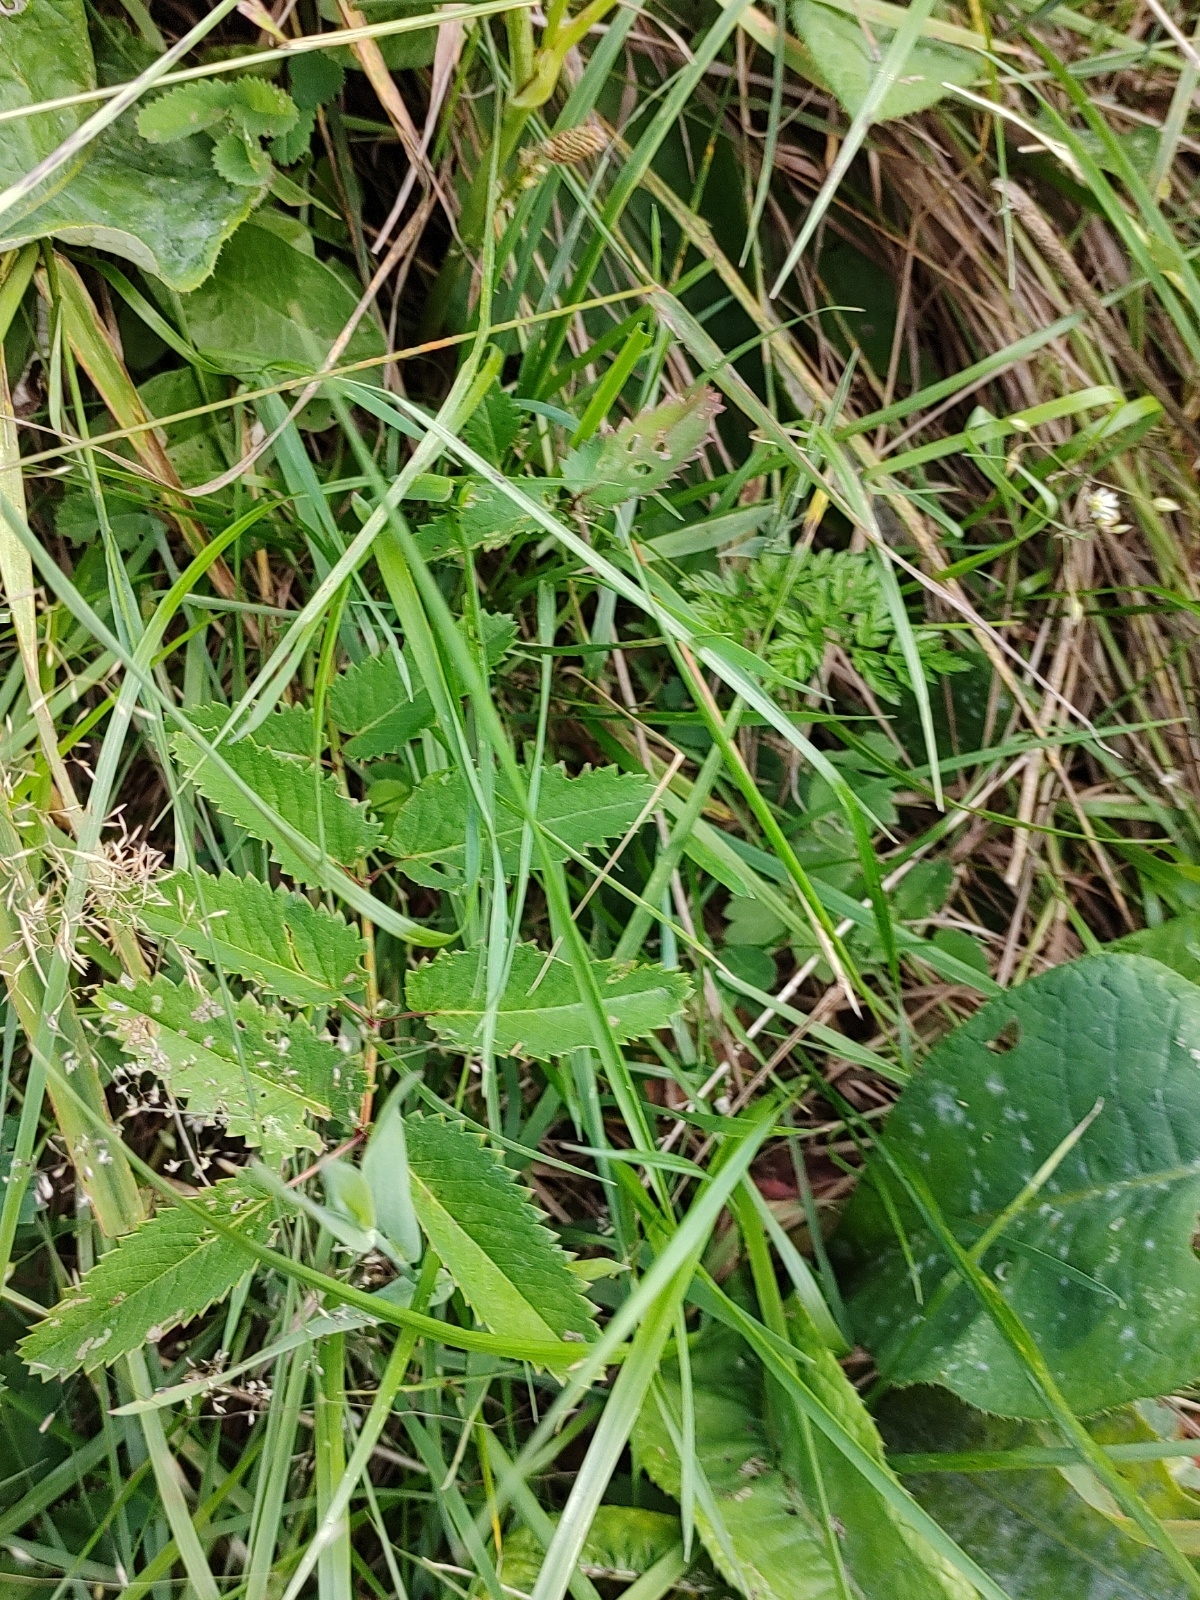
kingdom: Plantae
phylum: Tracheophyta
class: Magnoliopsida
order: Rosales
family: Rosaceae
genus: Sanguisorba
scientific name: Sanguisorba officinalis
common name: Great burnet
